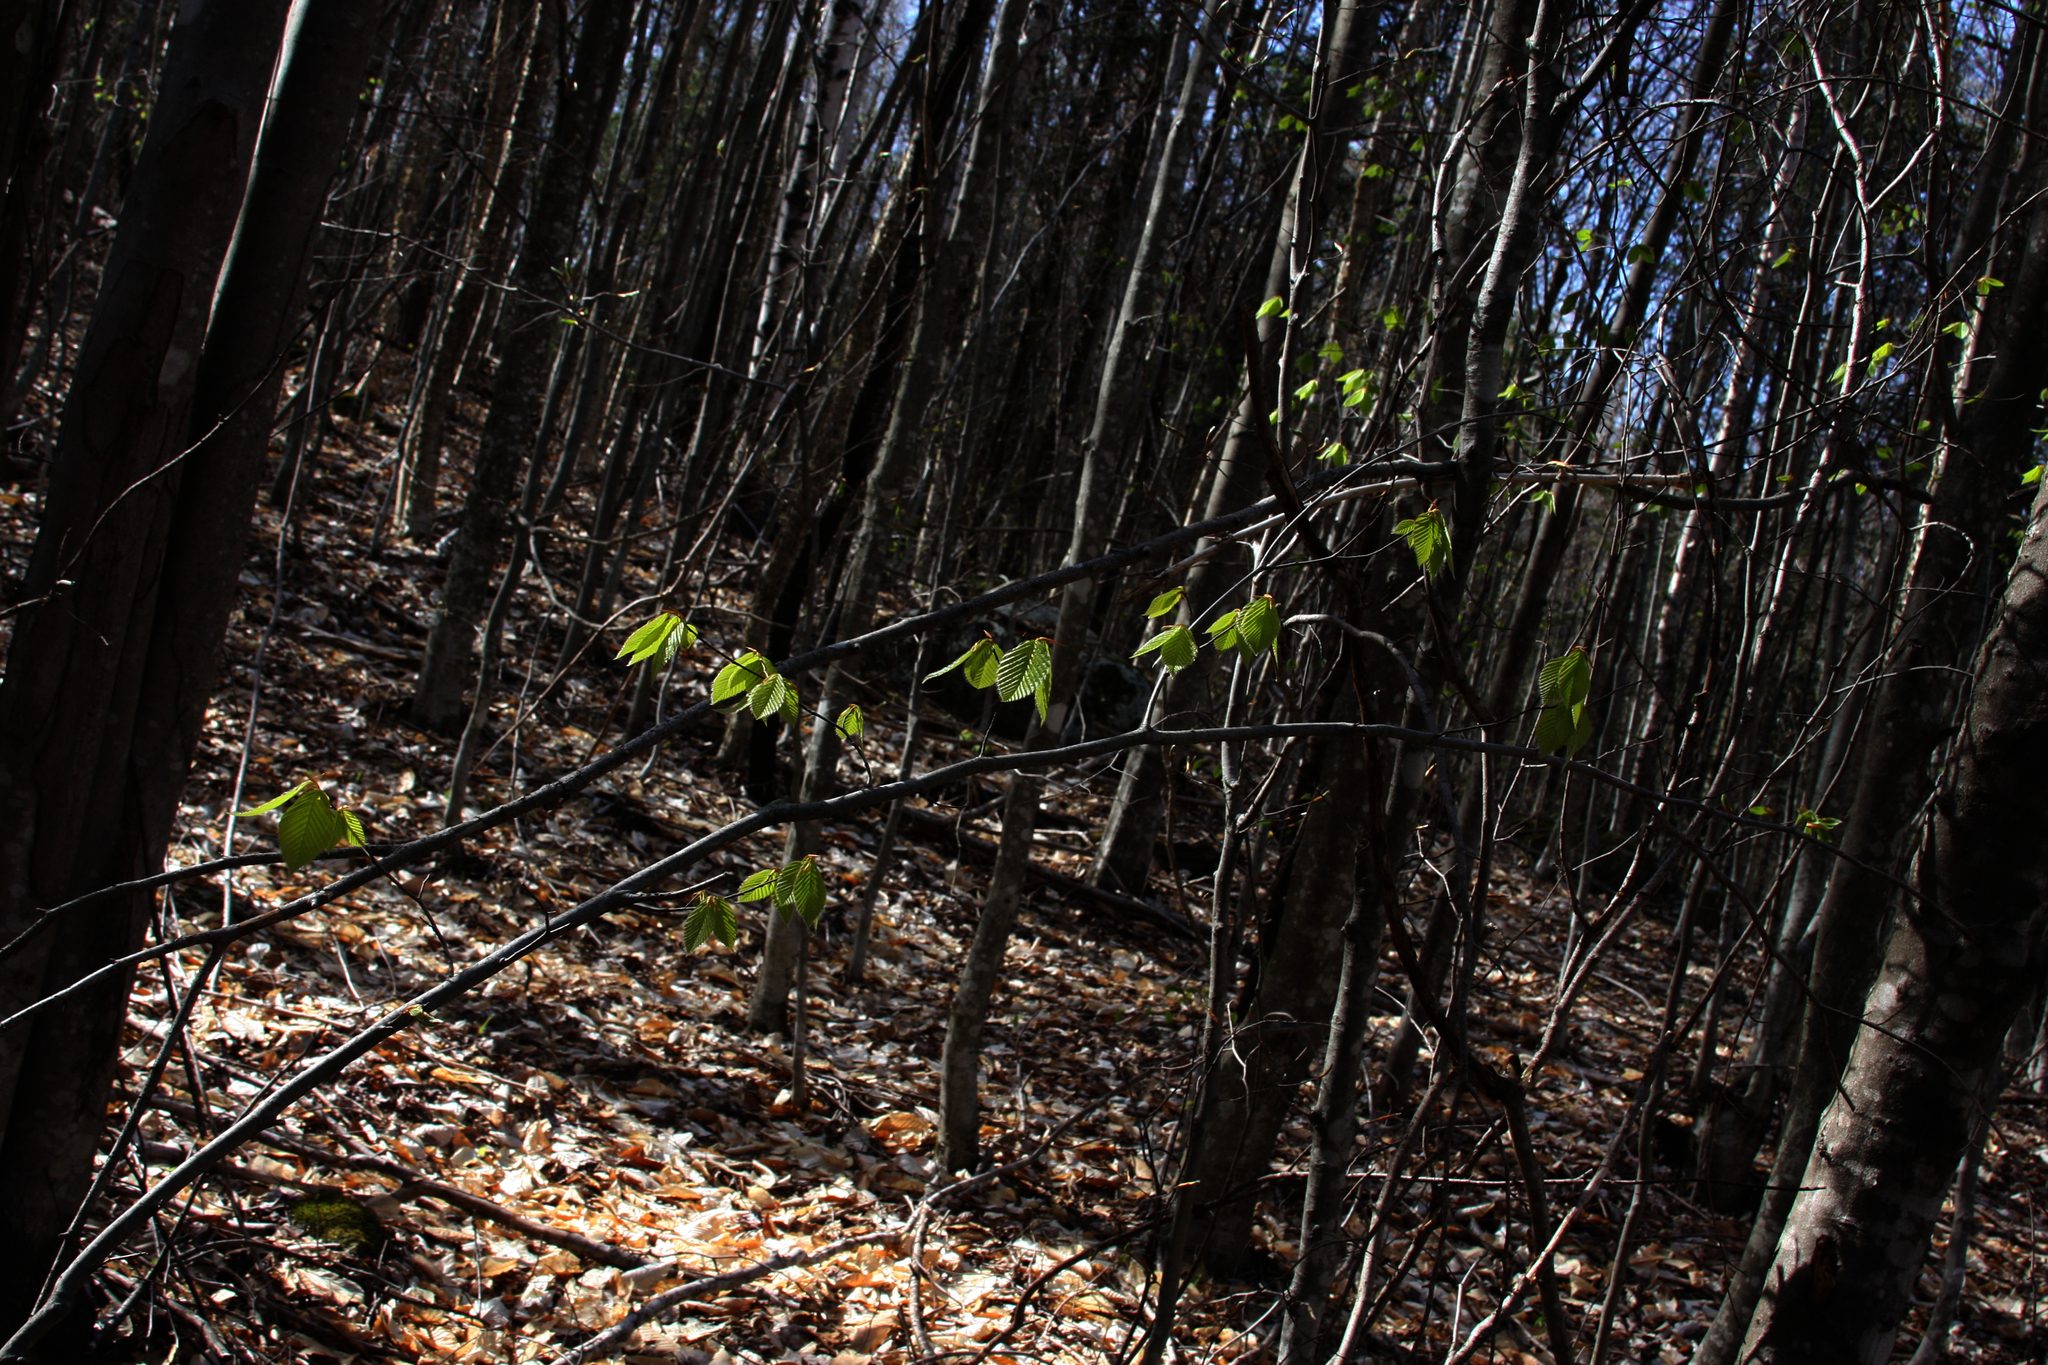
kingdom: Plantae
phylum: Tracheophyta
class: Magnoliopsida
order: Fagales
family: Fagaceae
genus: Fagus
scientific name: Fagus grandifolia
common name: American beech
